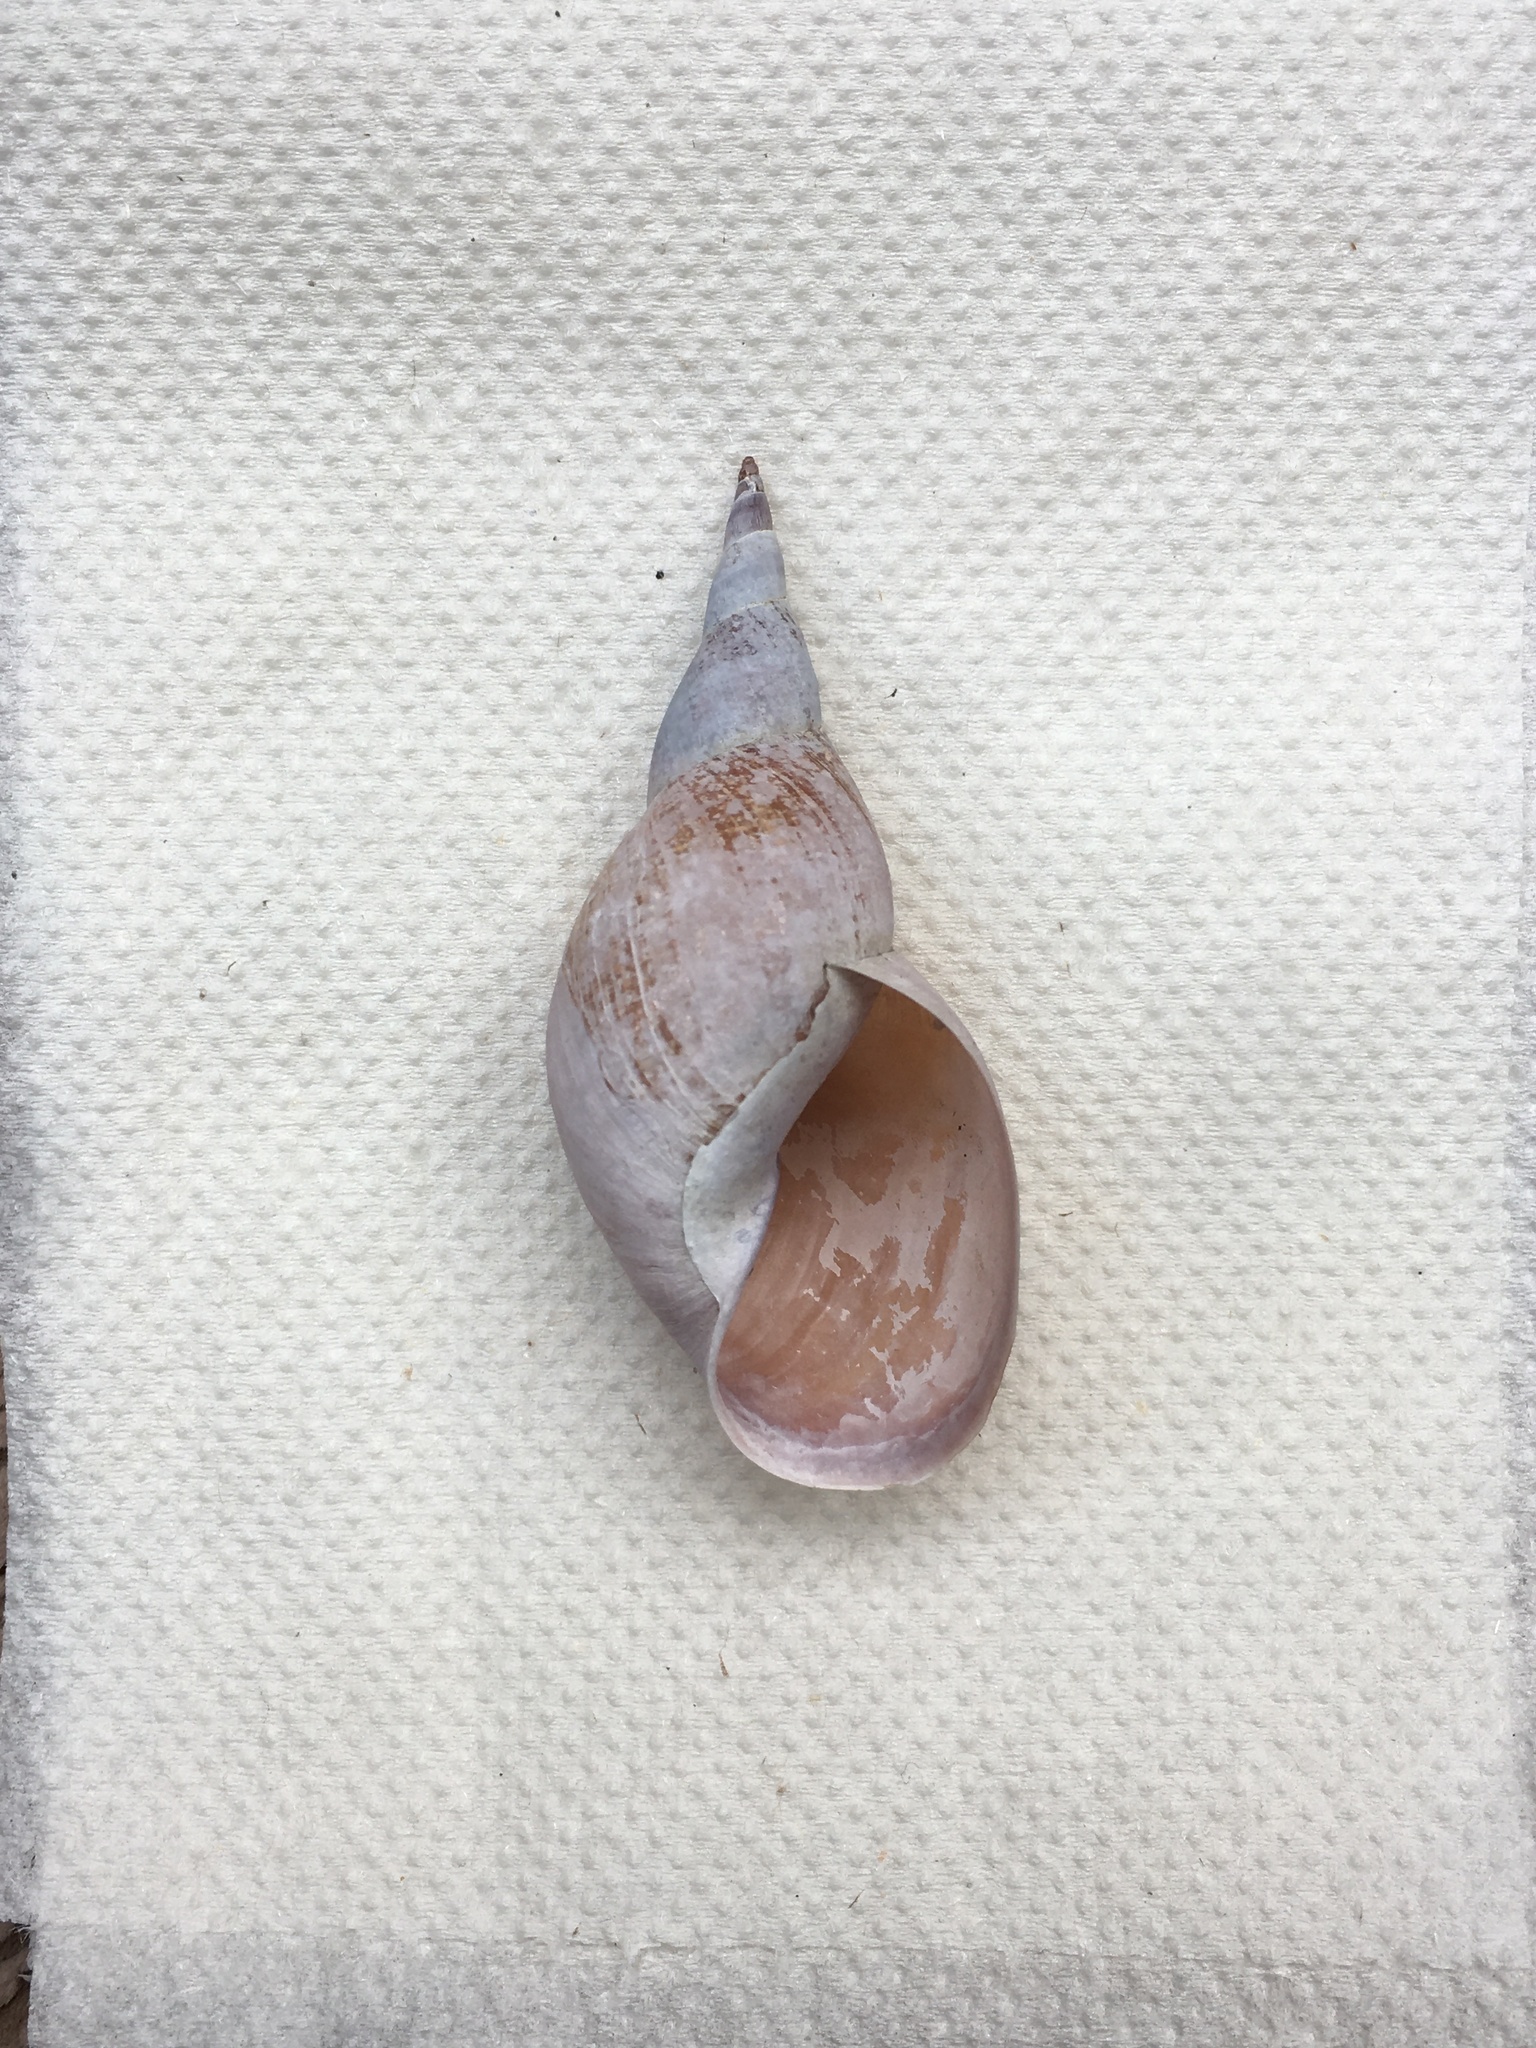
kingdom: Animalia
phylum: Mollusca
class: Gastropoda
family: Lymnaeidae
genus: Lymnaea
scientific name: Lymnaea stagnalis
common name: Great pond snail
